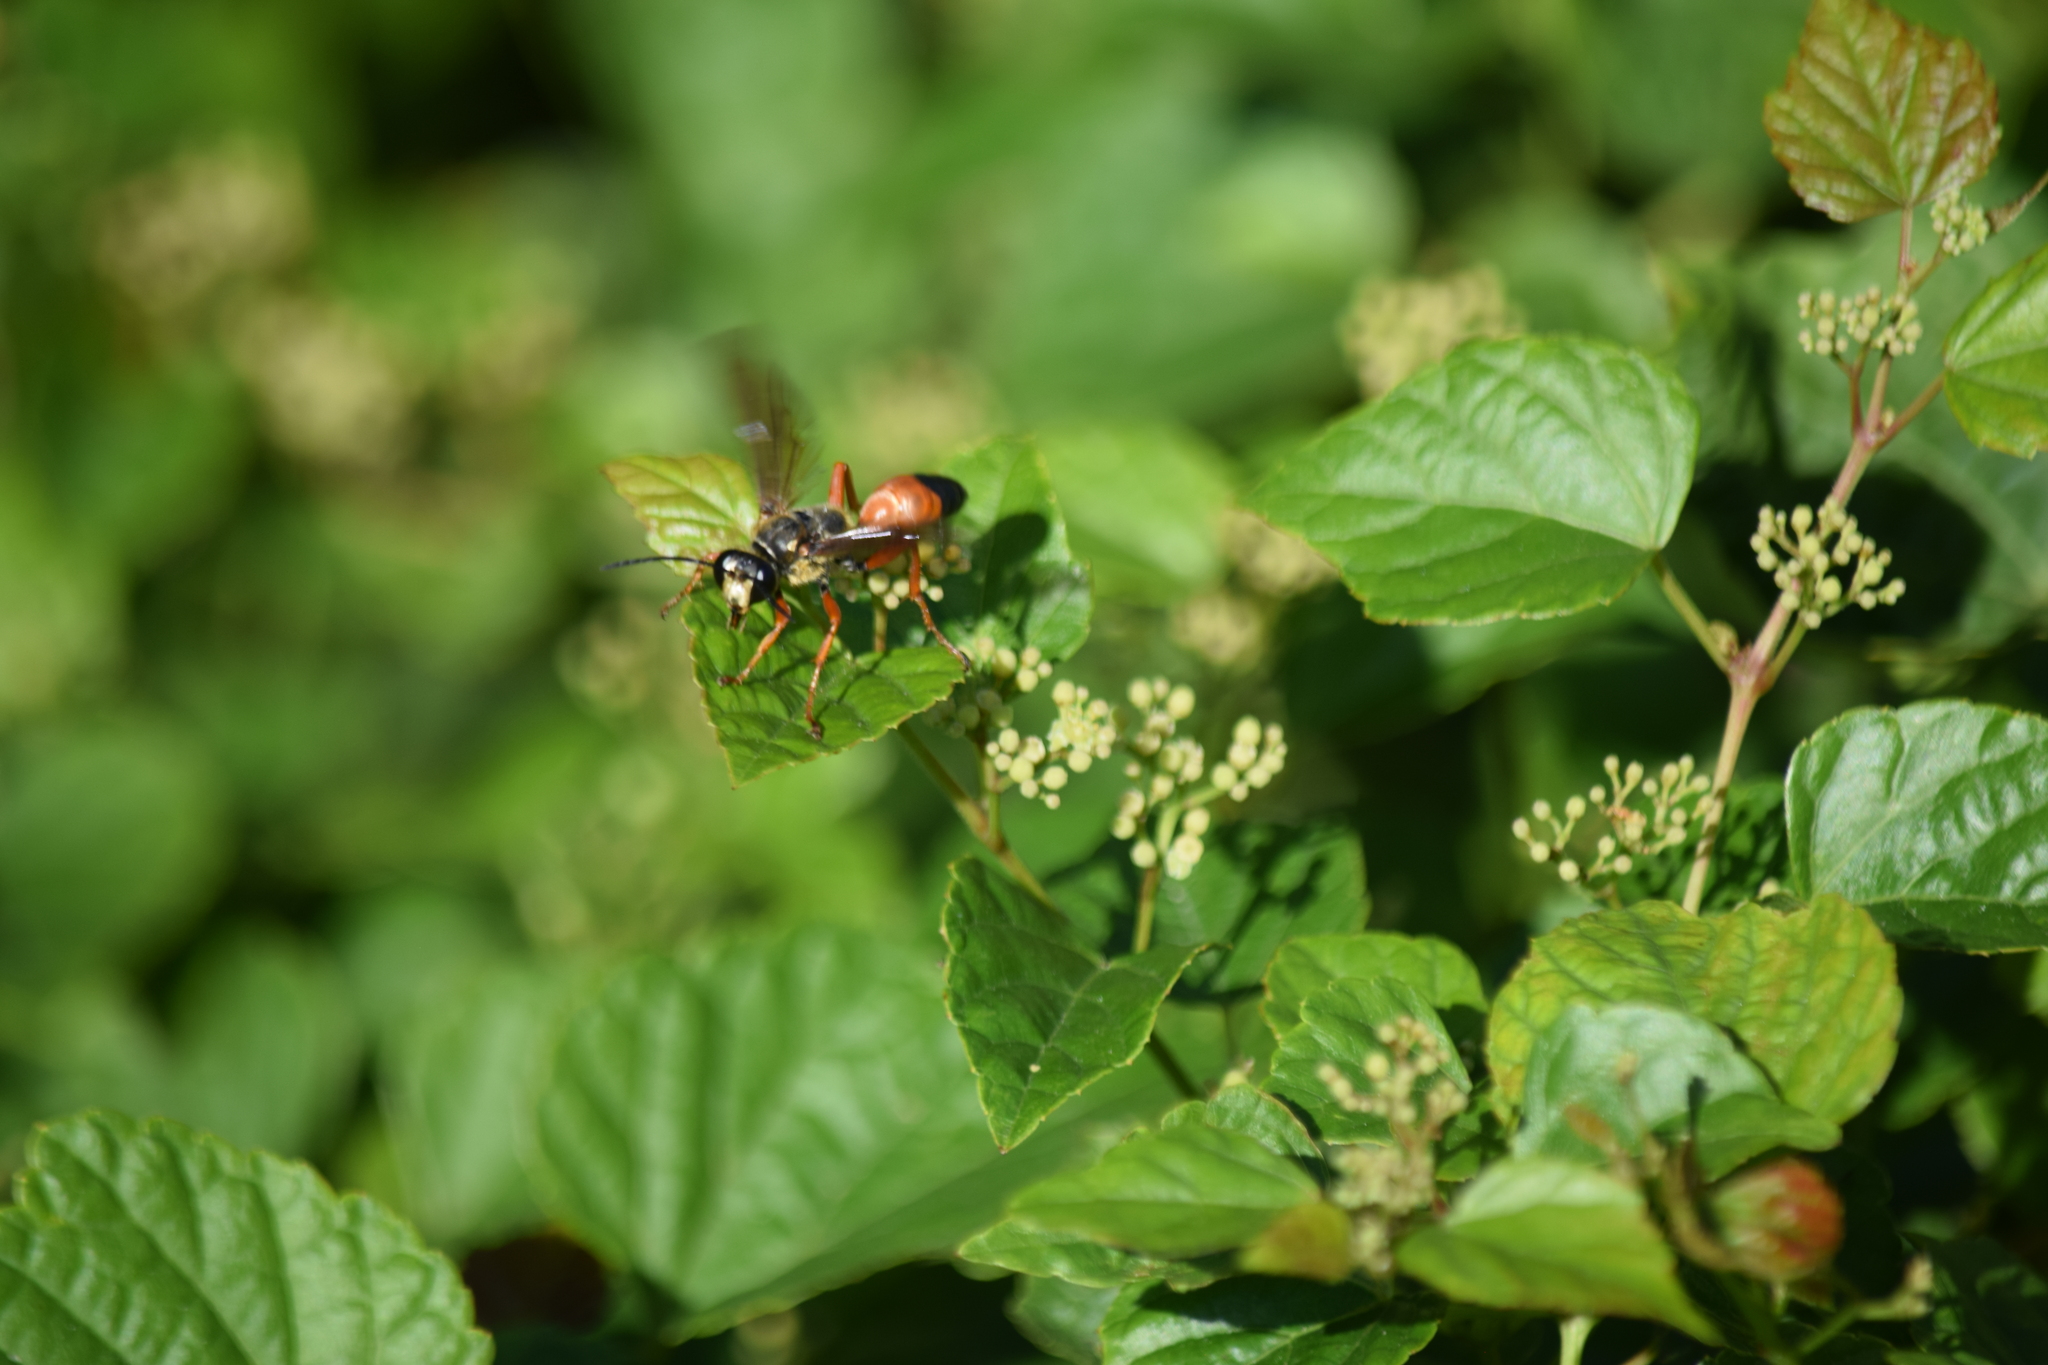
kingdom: Animalia
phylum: Arthropoda
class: Insecta
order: Hymenoptera
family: Sphecidae
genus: Sphex
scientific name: Sphex ichneumoneus
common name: Great golden digger wasp
